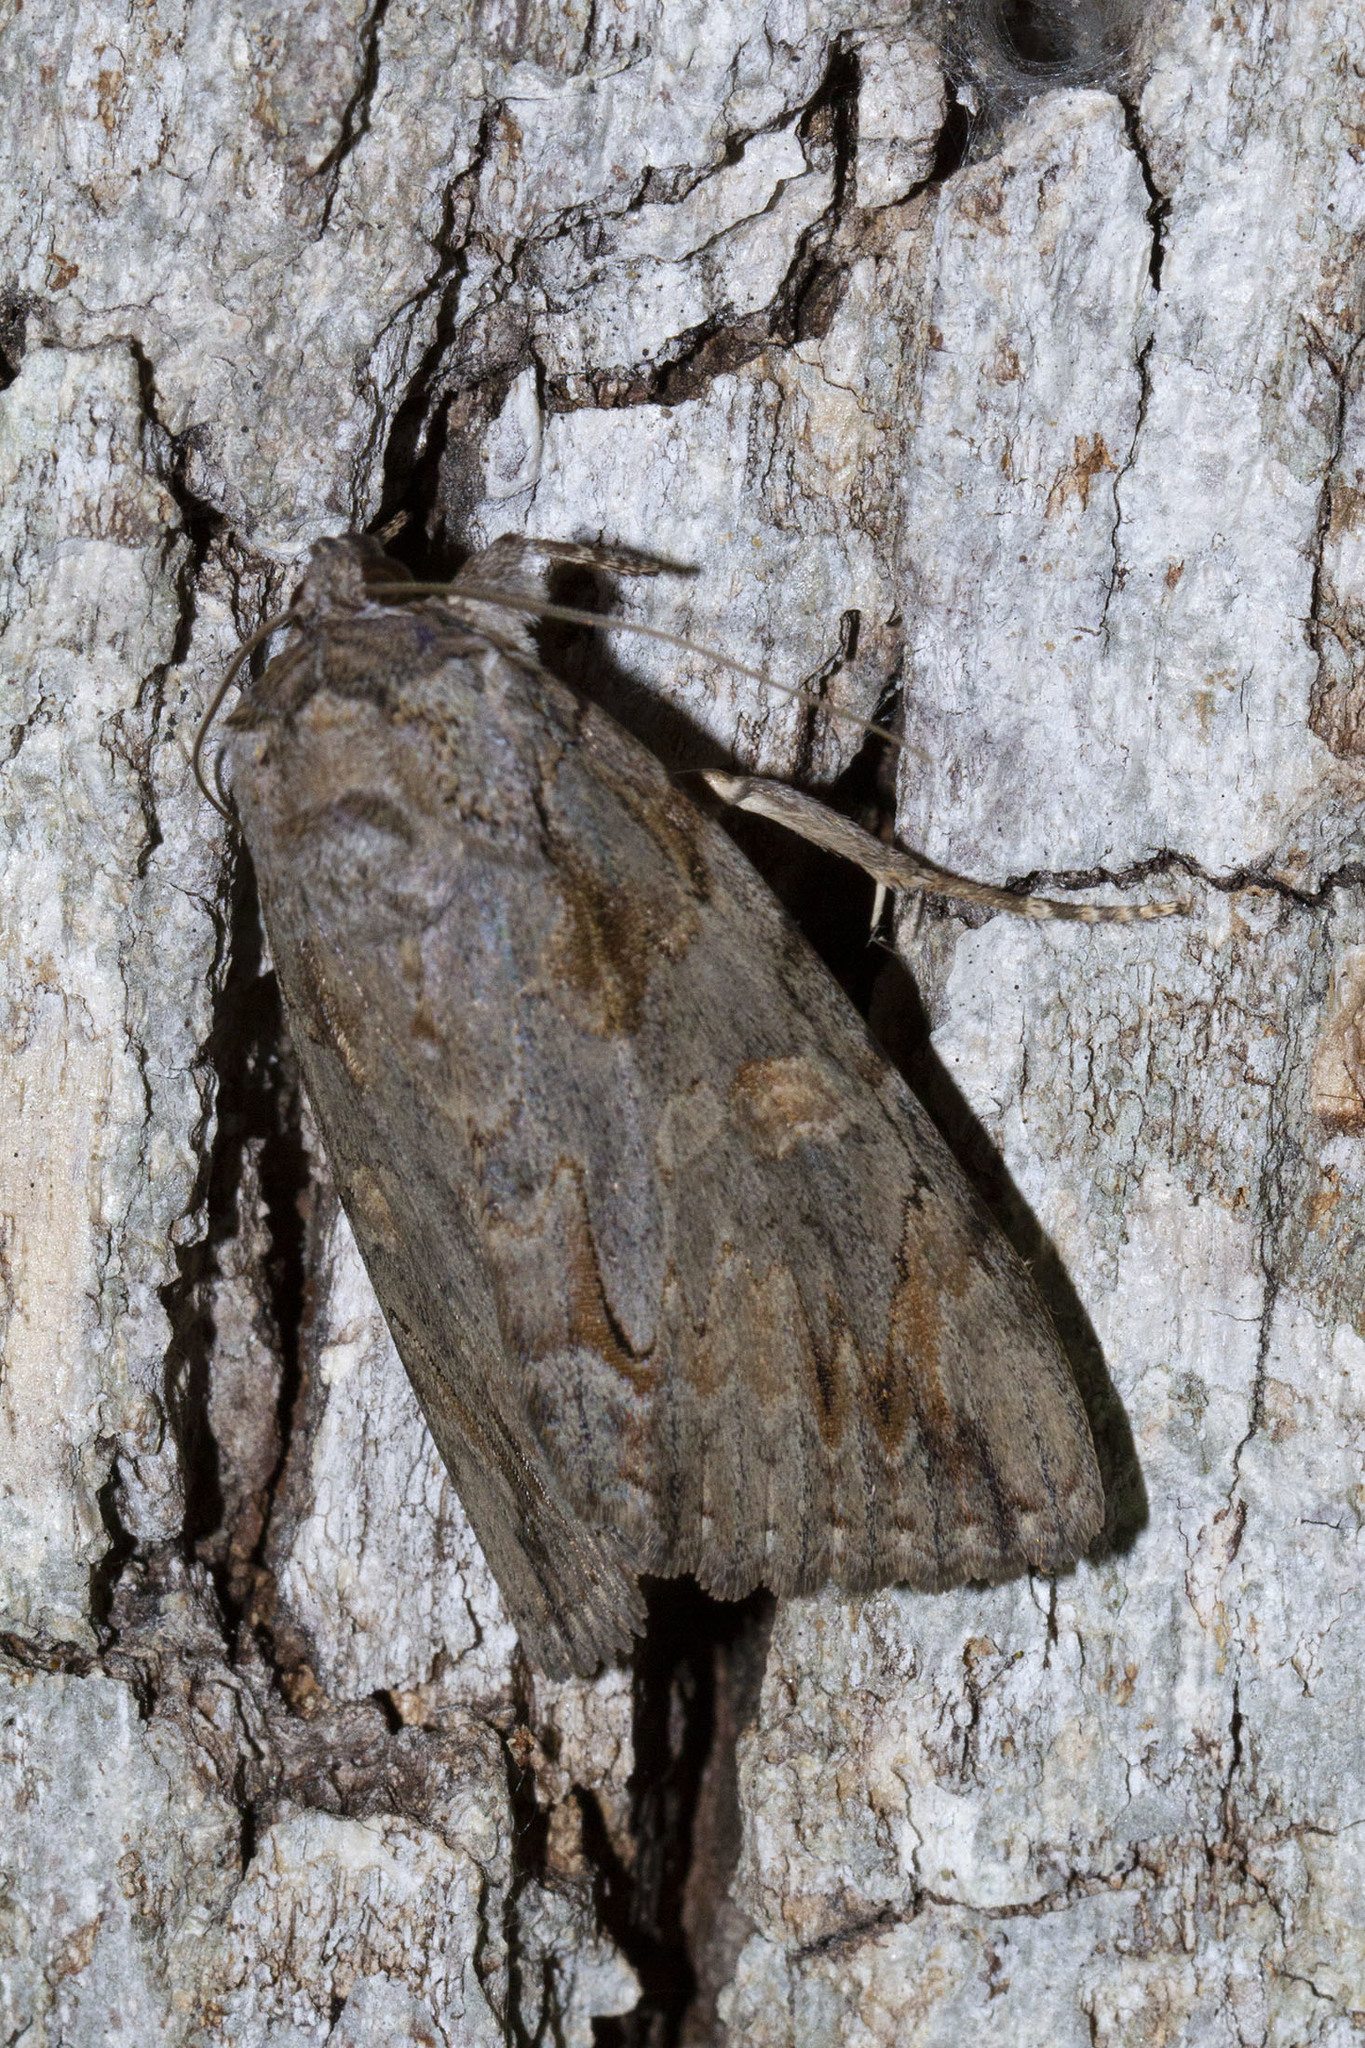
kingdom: Animalia
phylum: Arthropoda
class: Insecta
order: Lepidoptera
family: Erebidae
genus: Catocala
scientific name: Catocala neogama
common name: Bride underwing
